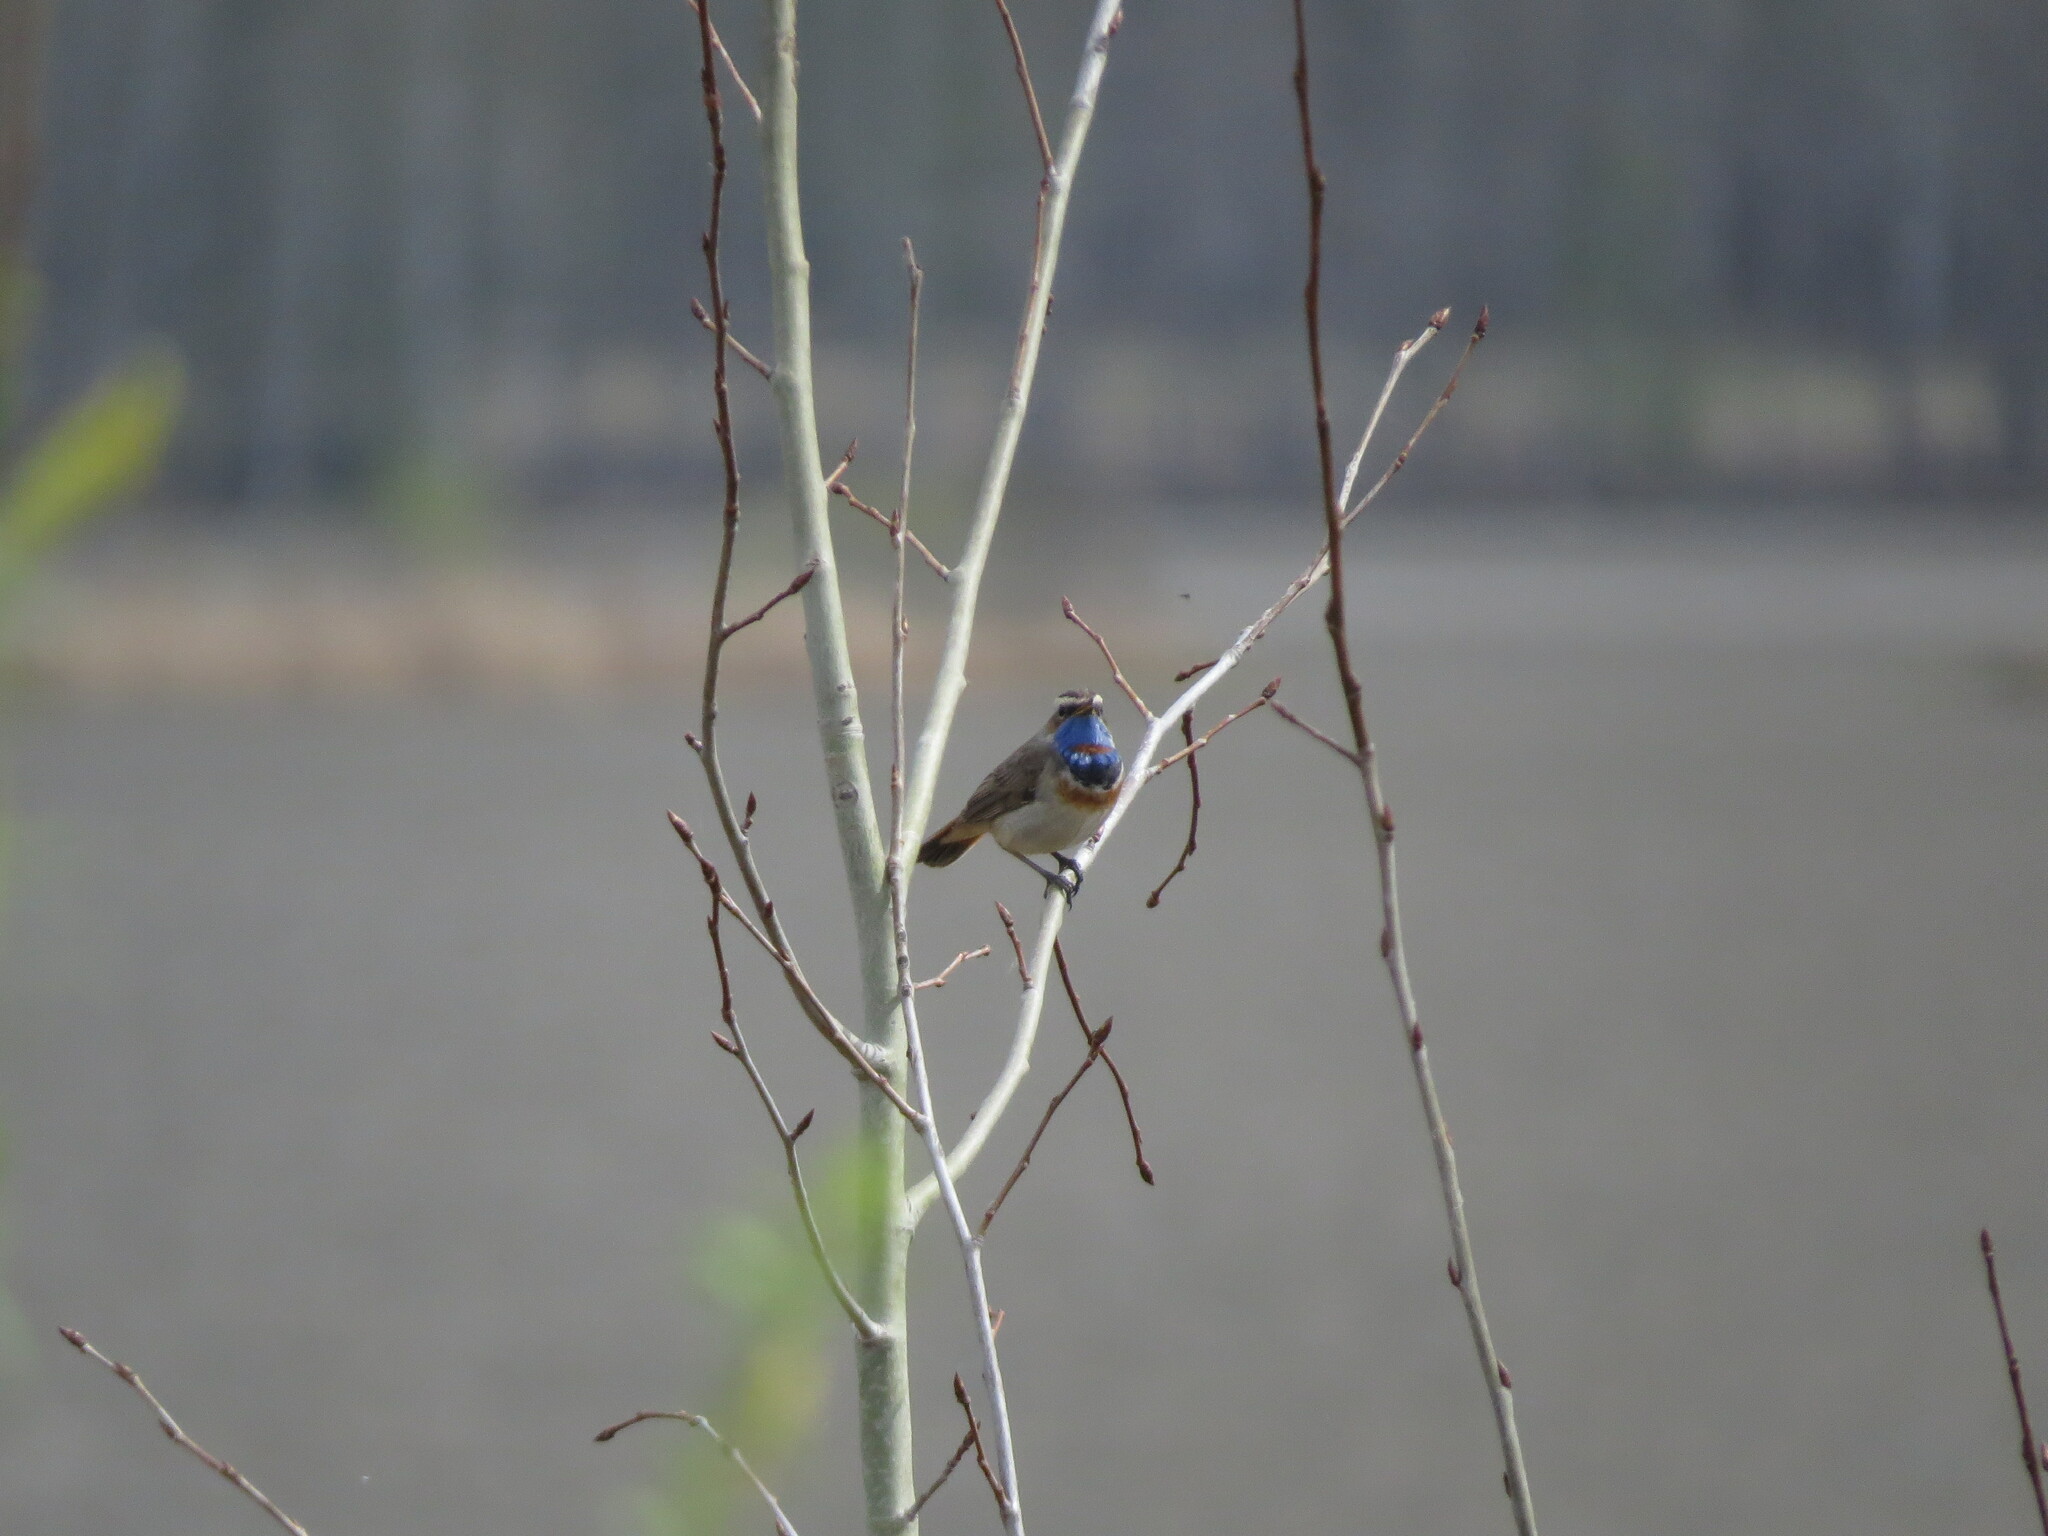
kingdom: Animalia
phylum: Chordata
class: Aves
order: Passeriformes
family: Muscicapidae
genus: Luscinia
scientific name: Luscinia svecica
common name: Bluethroat
